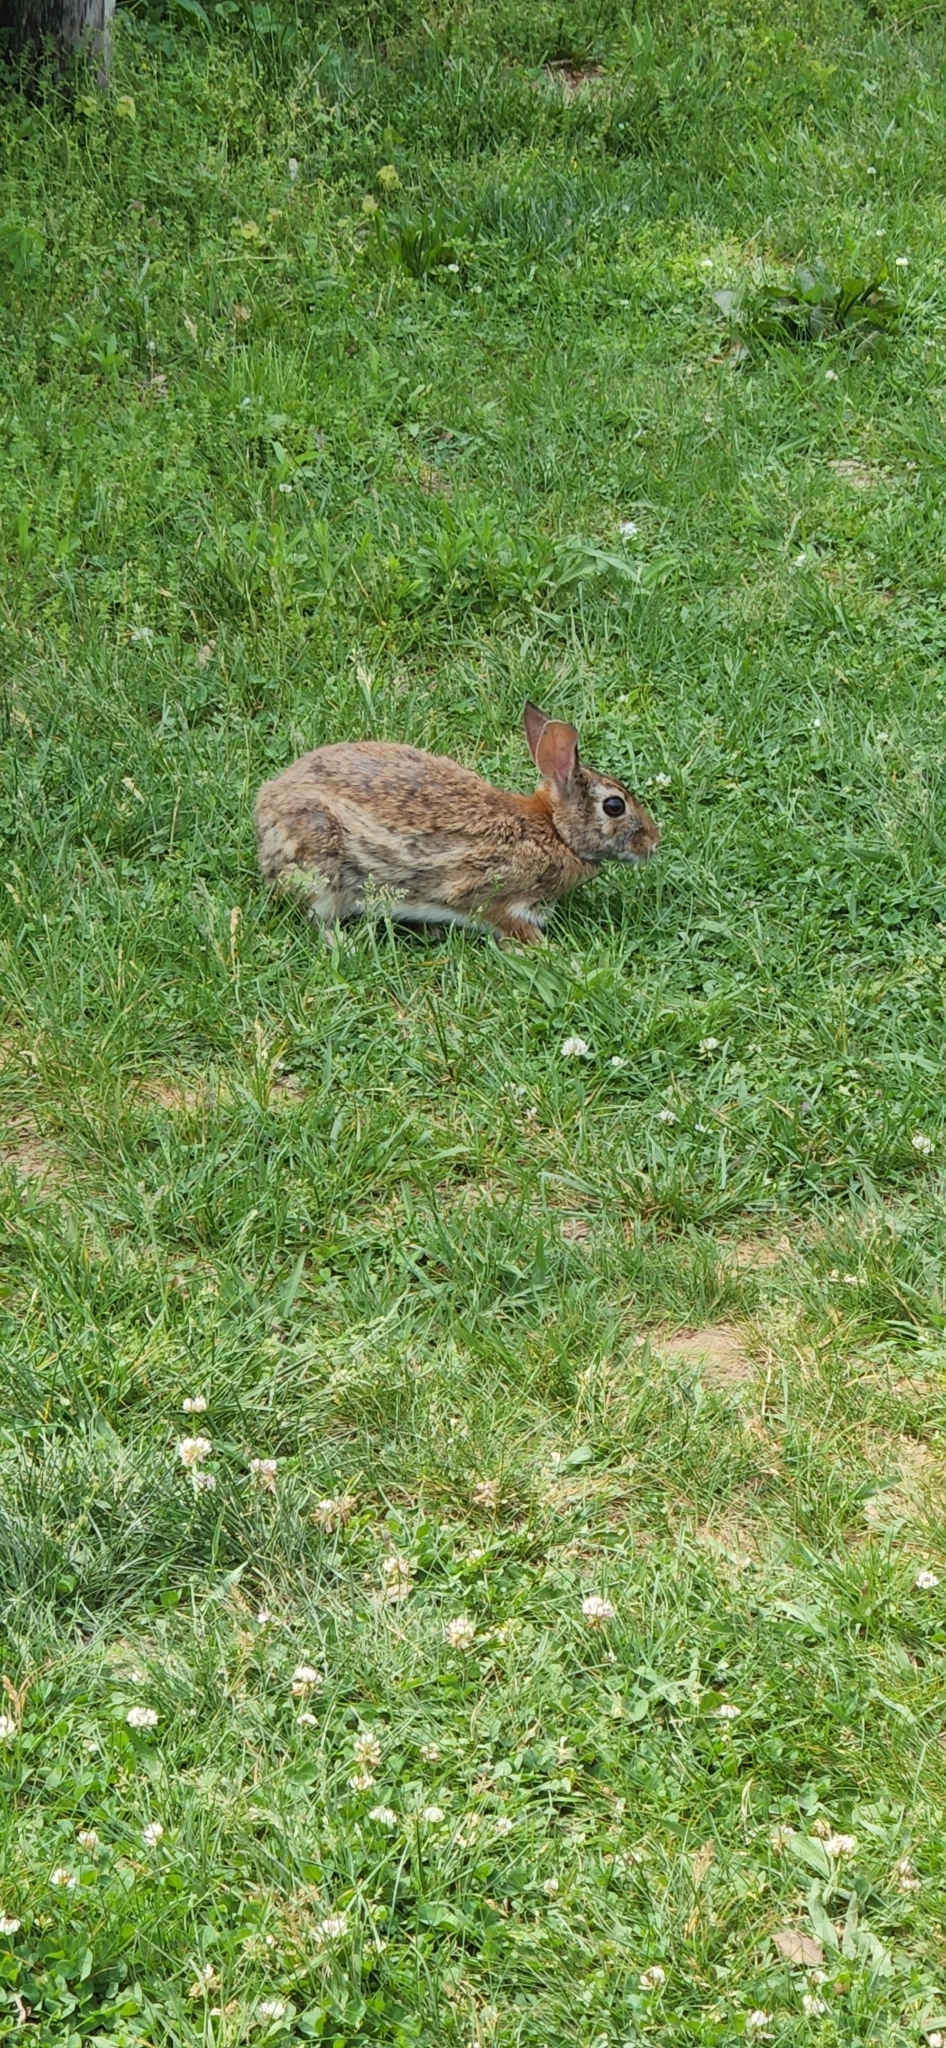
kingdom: Animalia
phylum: Chordata
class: Mammalia
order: Lagomorpha
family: Leporidae
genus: Sylvilagus
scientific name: Sylvilagus floridanus
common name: Eastern cottontail
